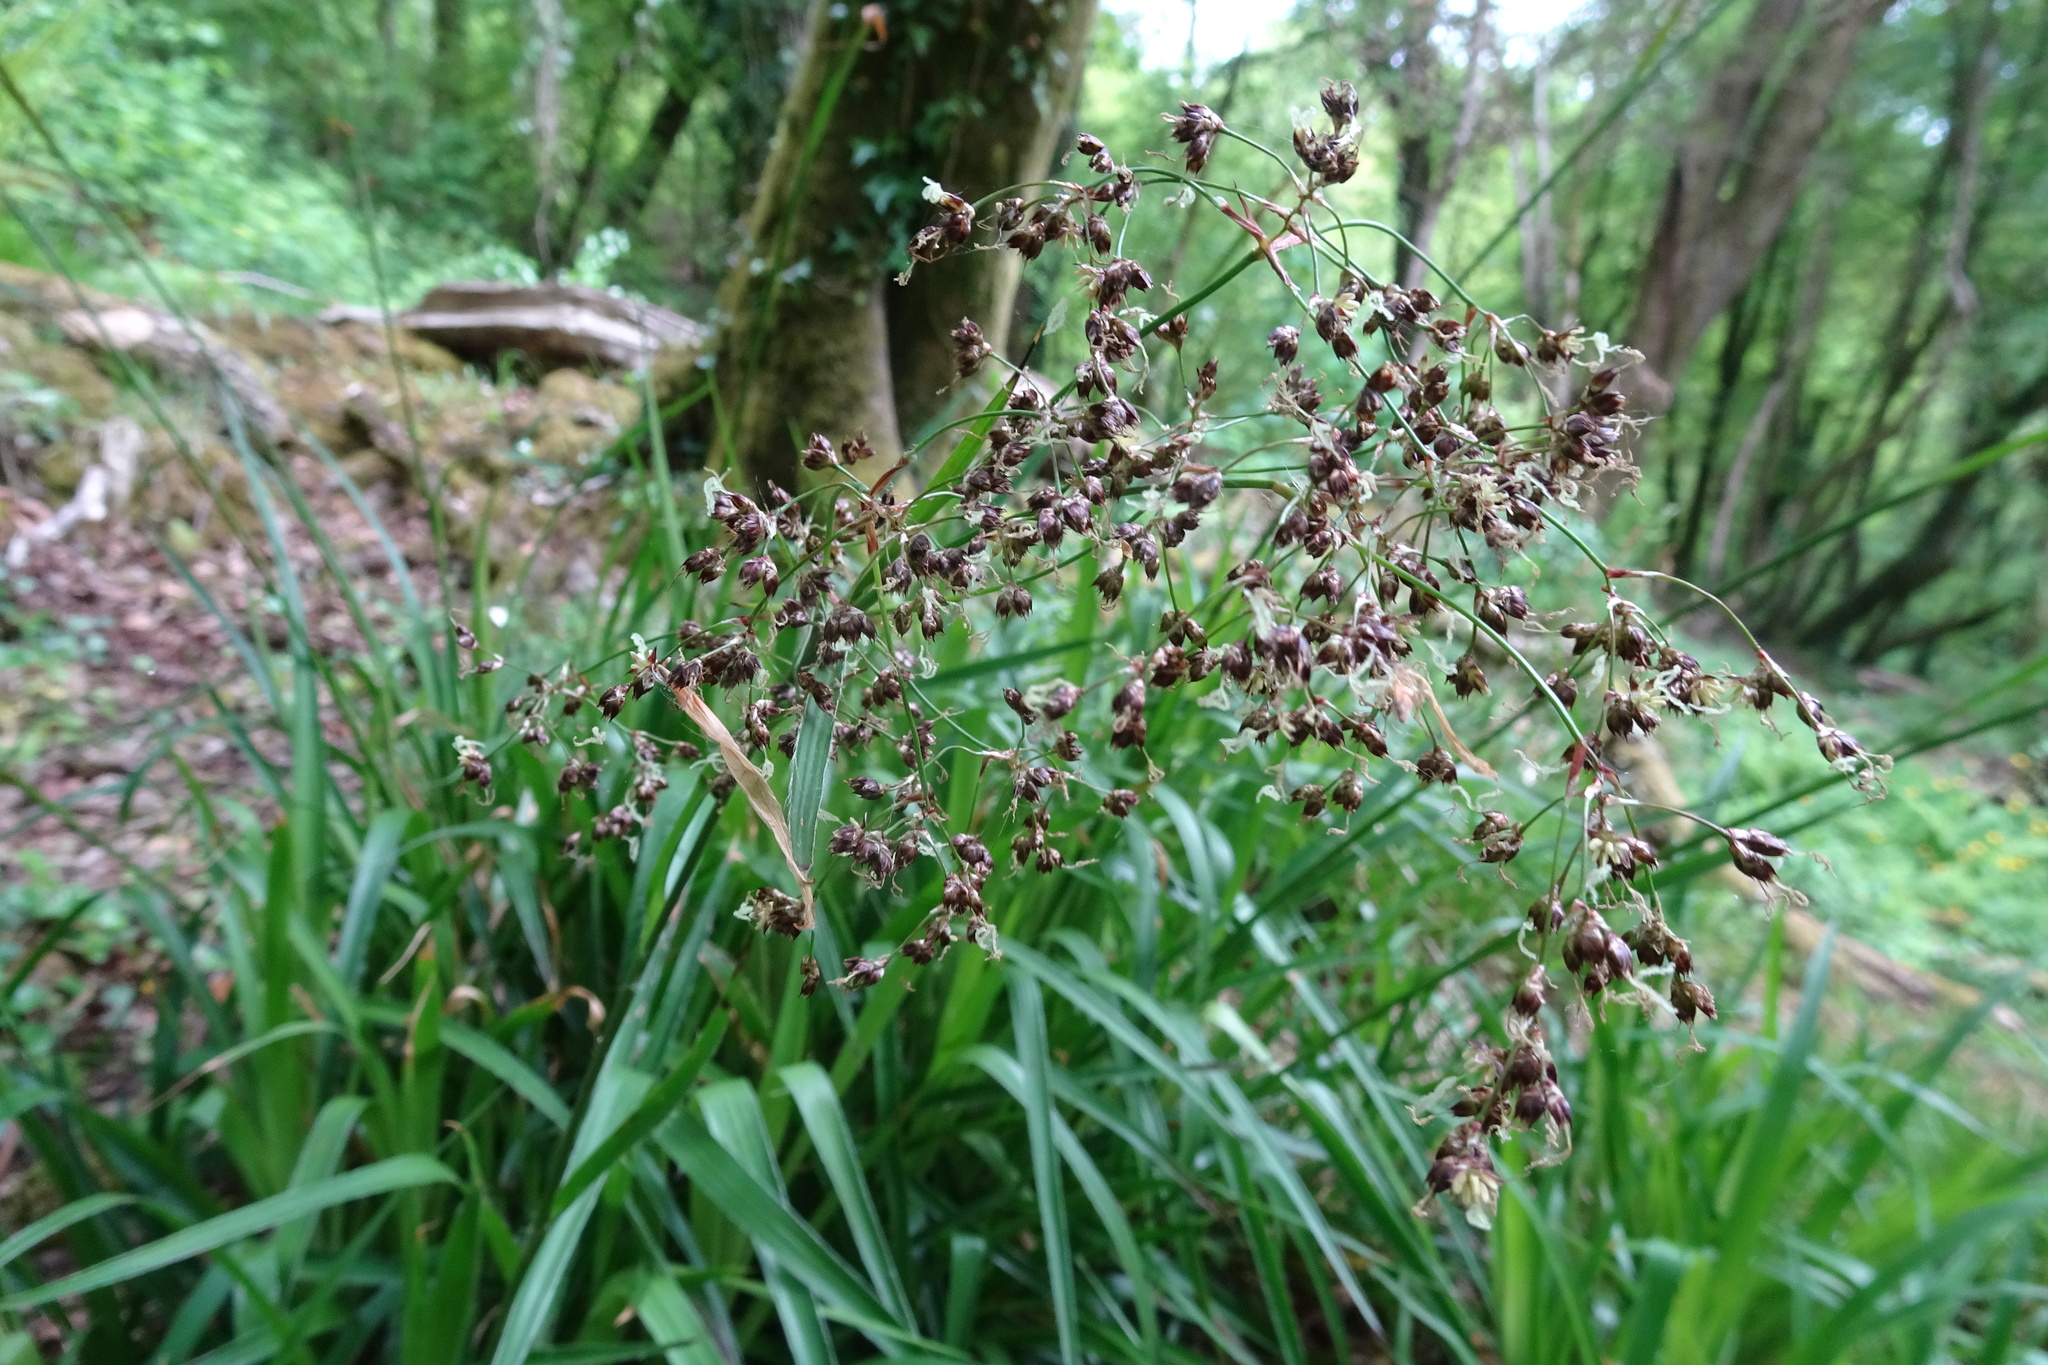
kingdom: Plantae
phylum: Tracheophyta
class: Liliopsida
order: Poales
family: Juncaceae
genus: Luzula
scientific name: Luzula sylvatica
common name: Great wood-rush
